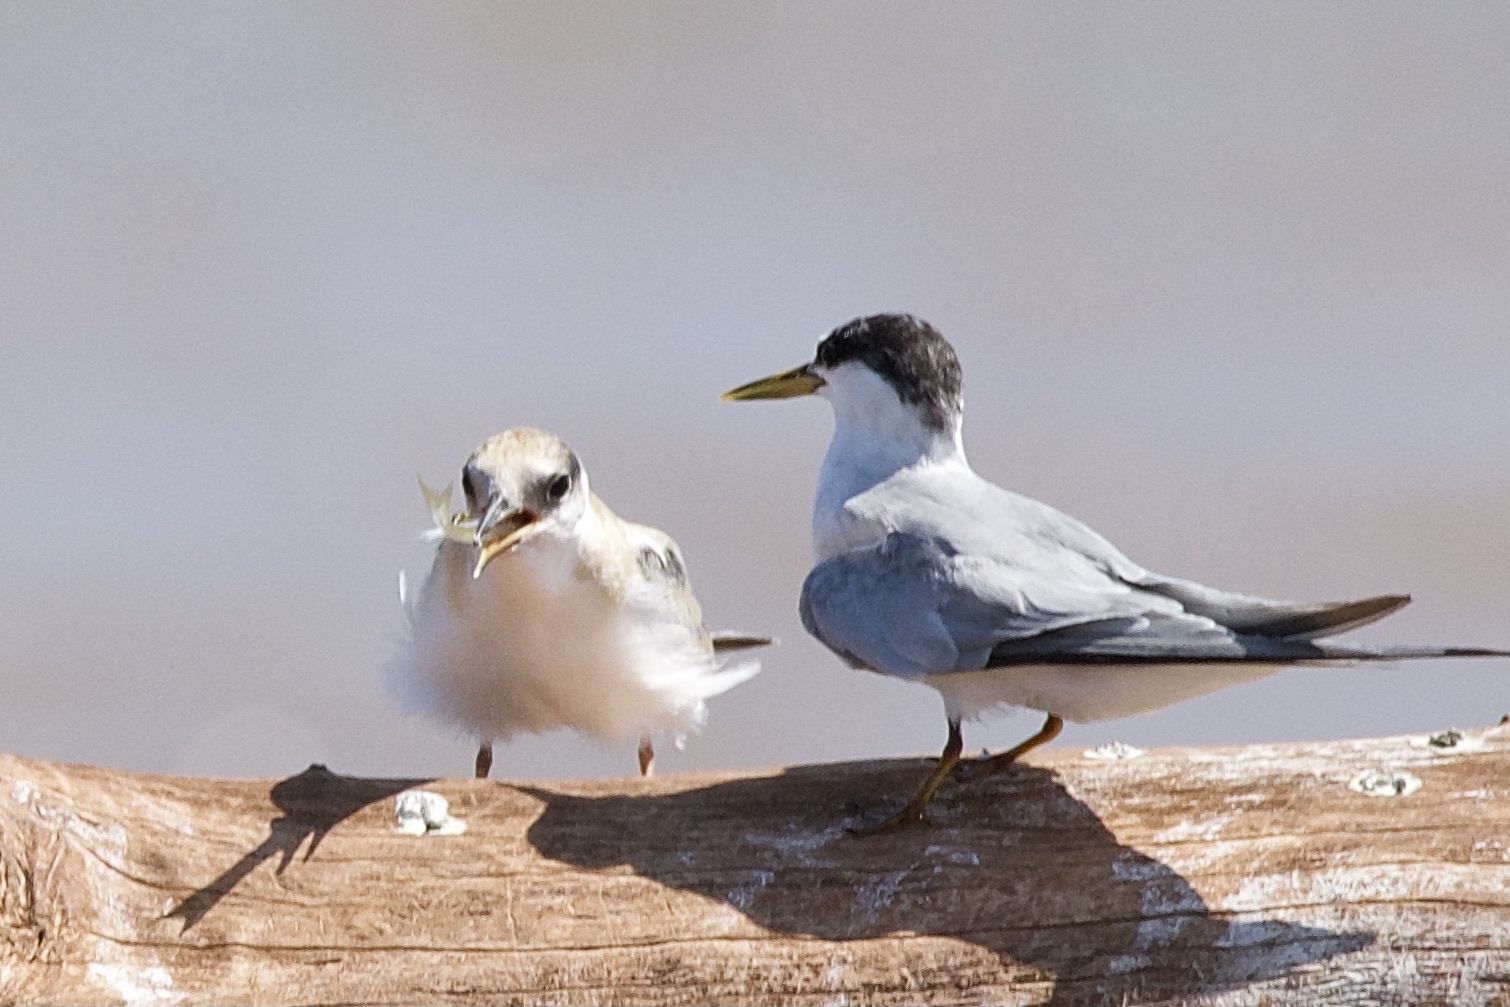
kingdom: Animalia
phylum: Chordata
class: Aves
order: Charadriiformes
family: Laridae
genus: Sternula
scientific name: Sternula antillarum
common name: Least tern
